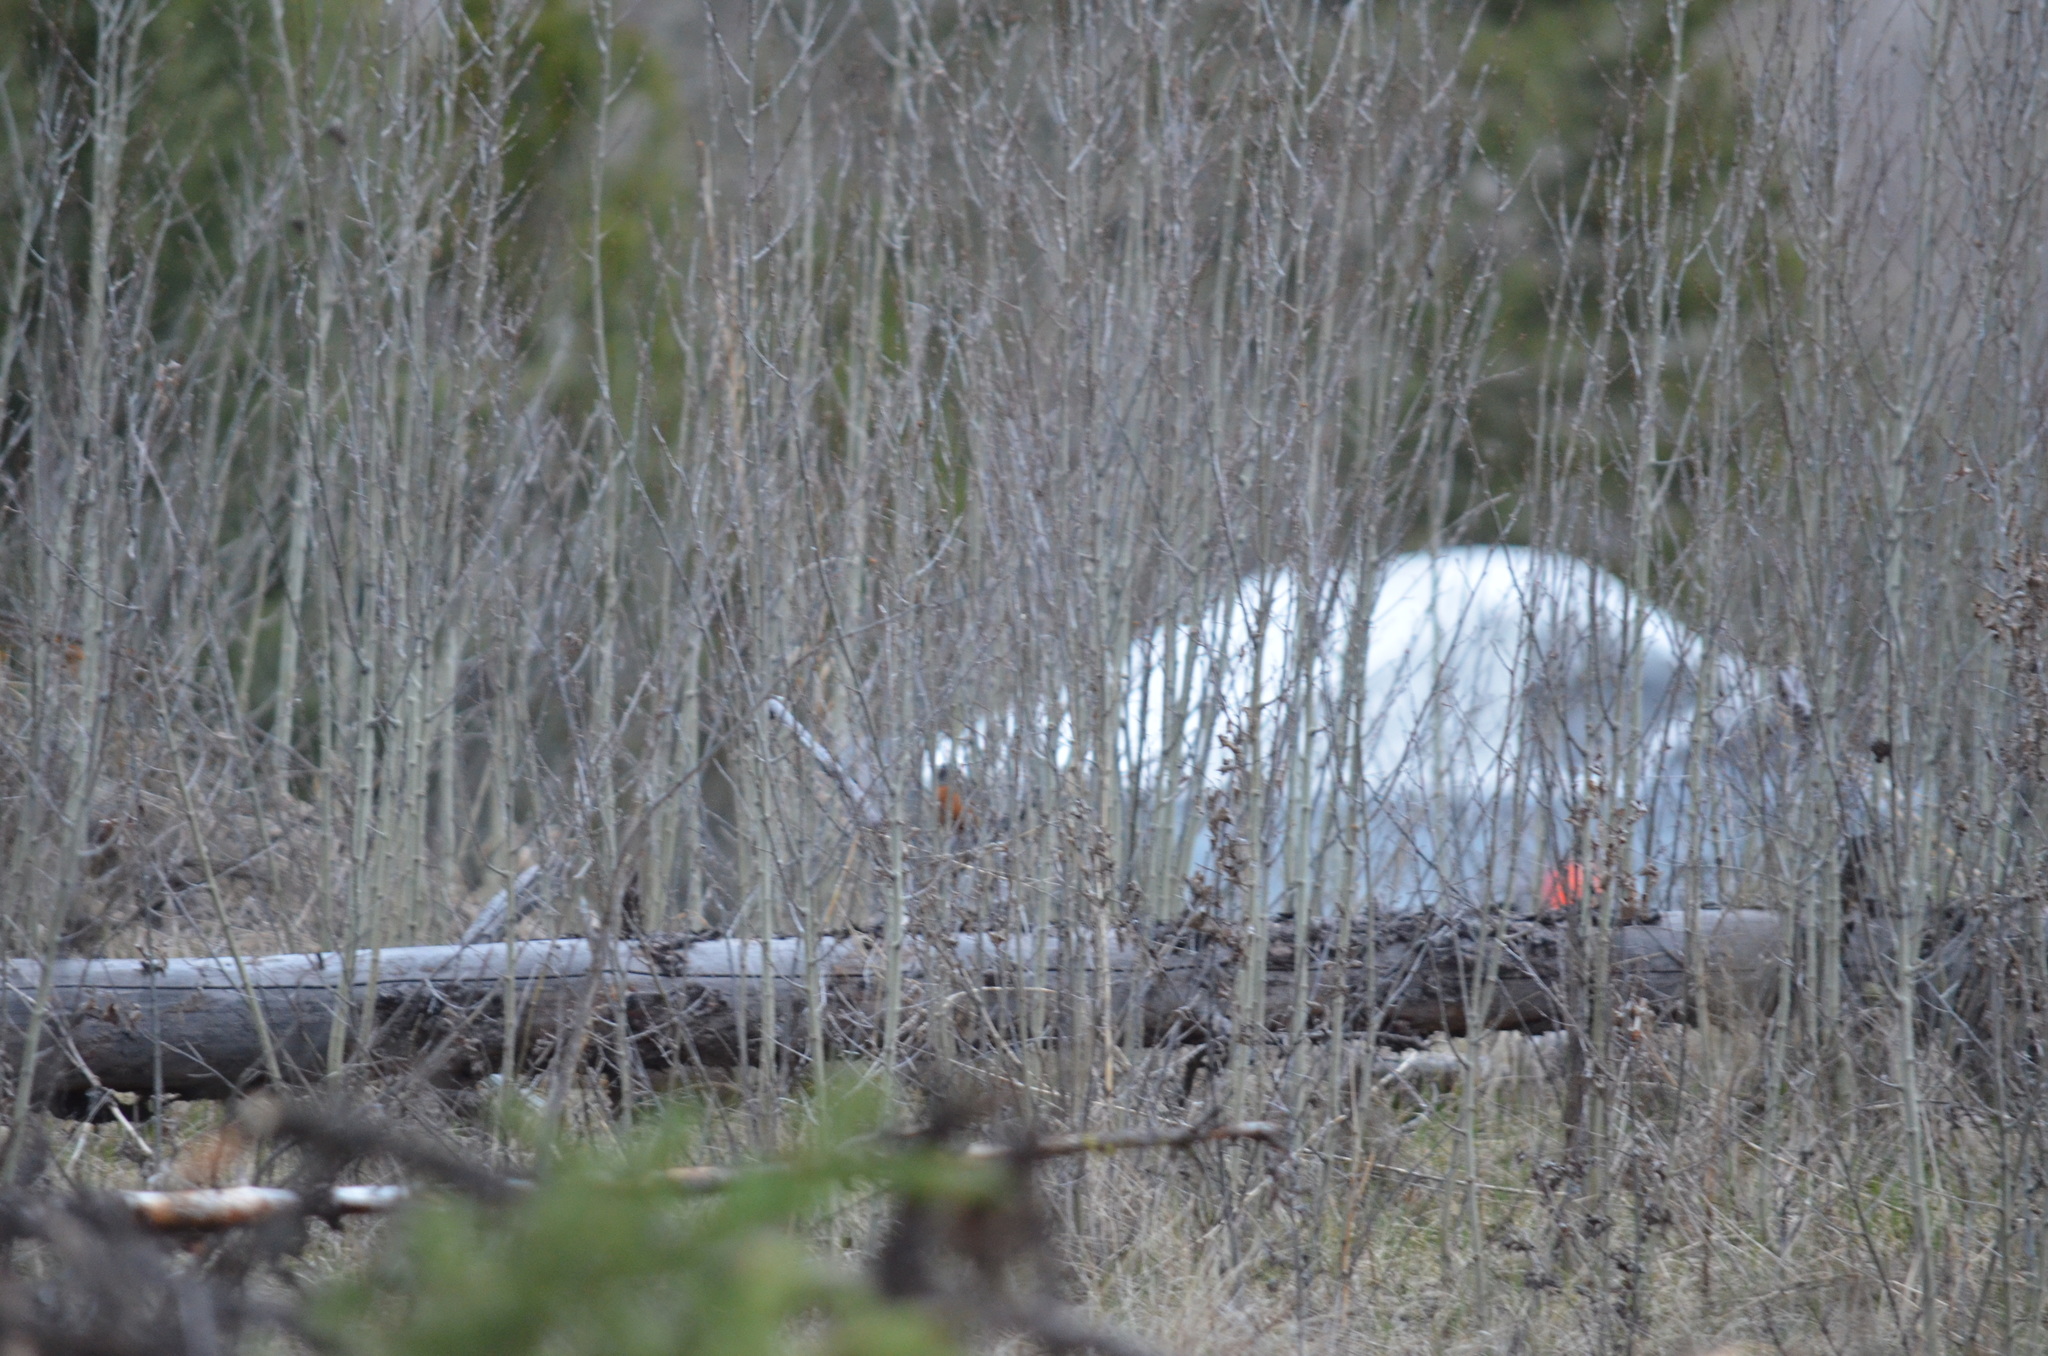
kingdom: Animalia
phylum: Chordata
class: Aves
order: Passeriformes
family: Turdidae
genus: Turdus
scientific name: Turdus migratorius
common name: American robin
